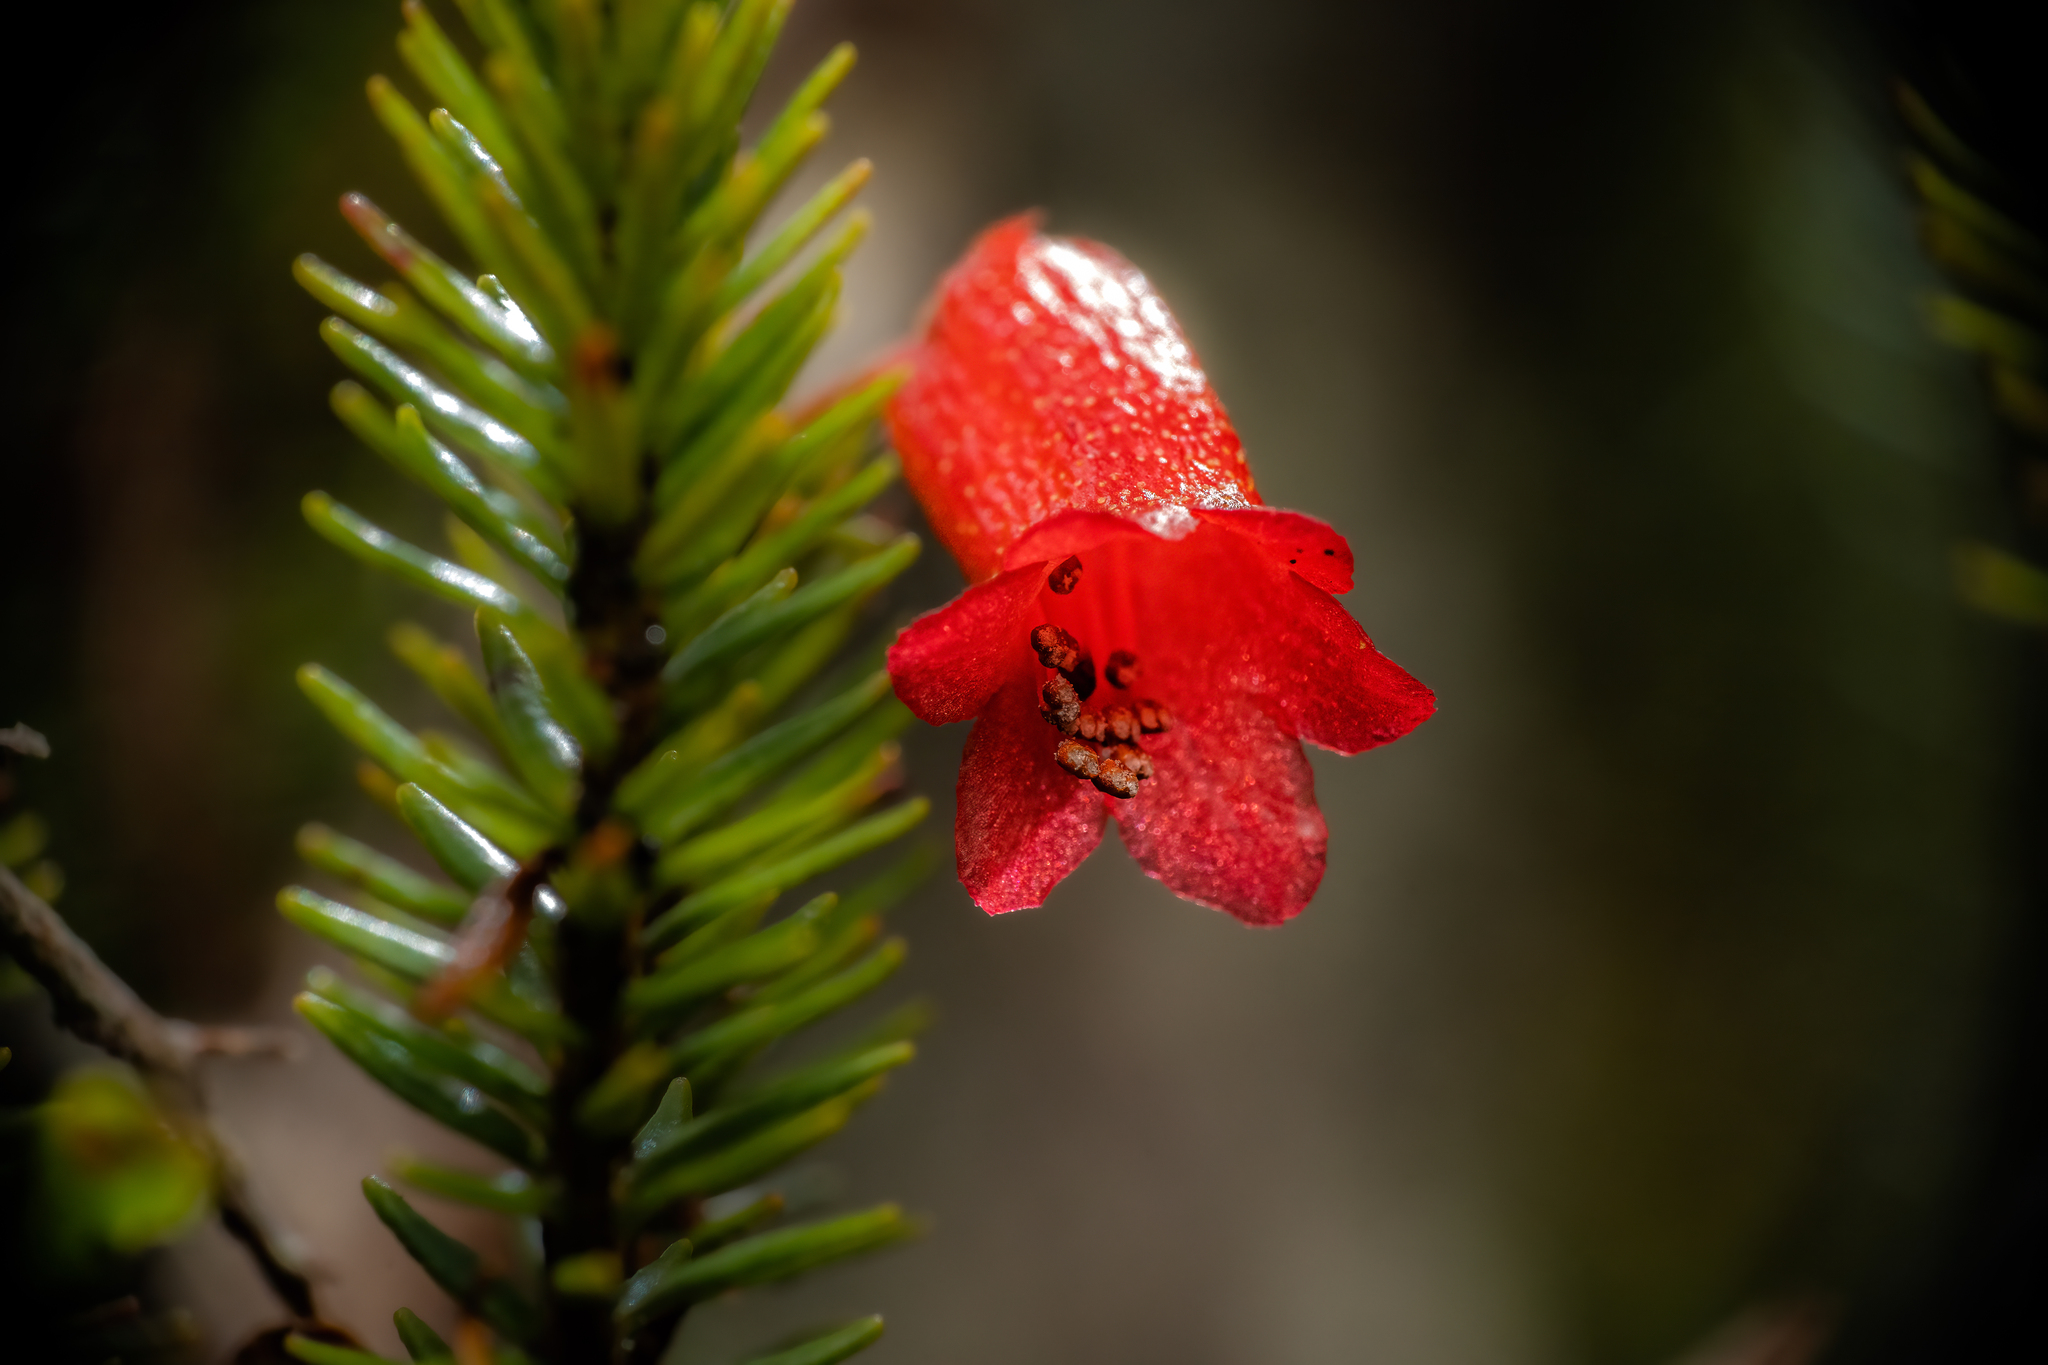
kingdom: Plantae
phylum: Tracheophyta
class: Magnoliopsida
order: Ericales
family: Ericaceae
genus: Rhododendron
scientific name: Rhododendron ericoides
